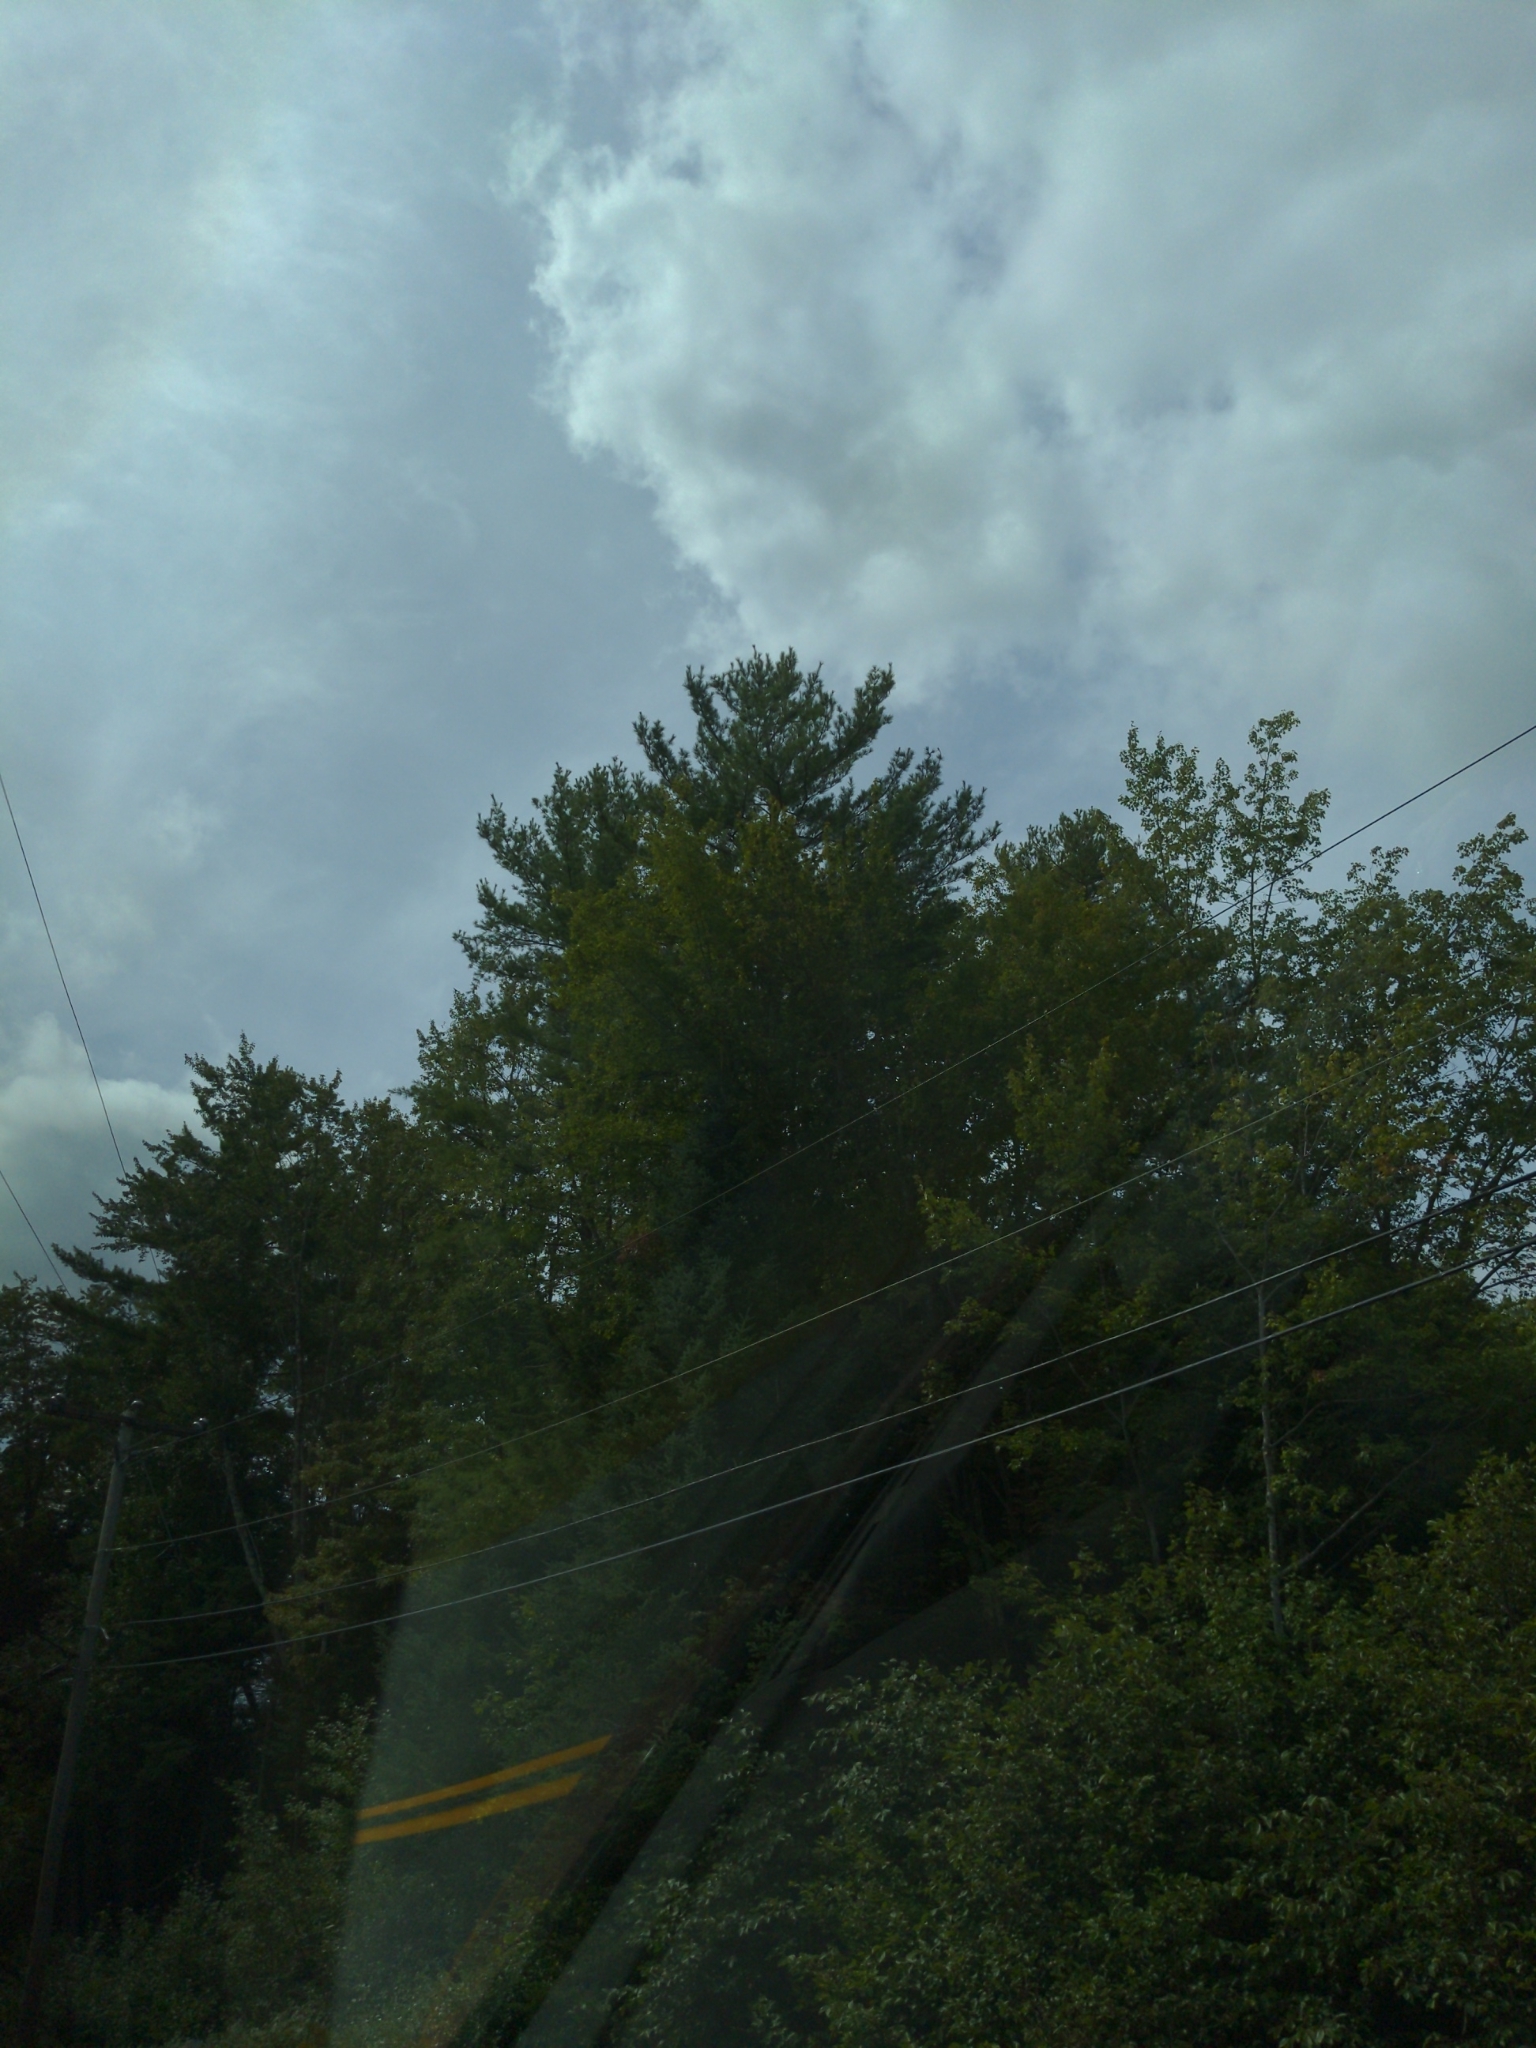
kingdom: Plantae
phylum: Tracheophyta
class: Pinopsida
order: Pinales
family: Pinaceae
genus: Pinus
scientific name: Pinus strobus
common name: Weymouth pine
